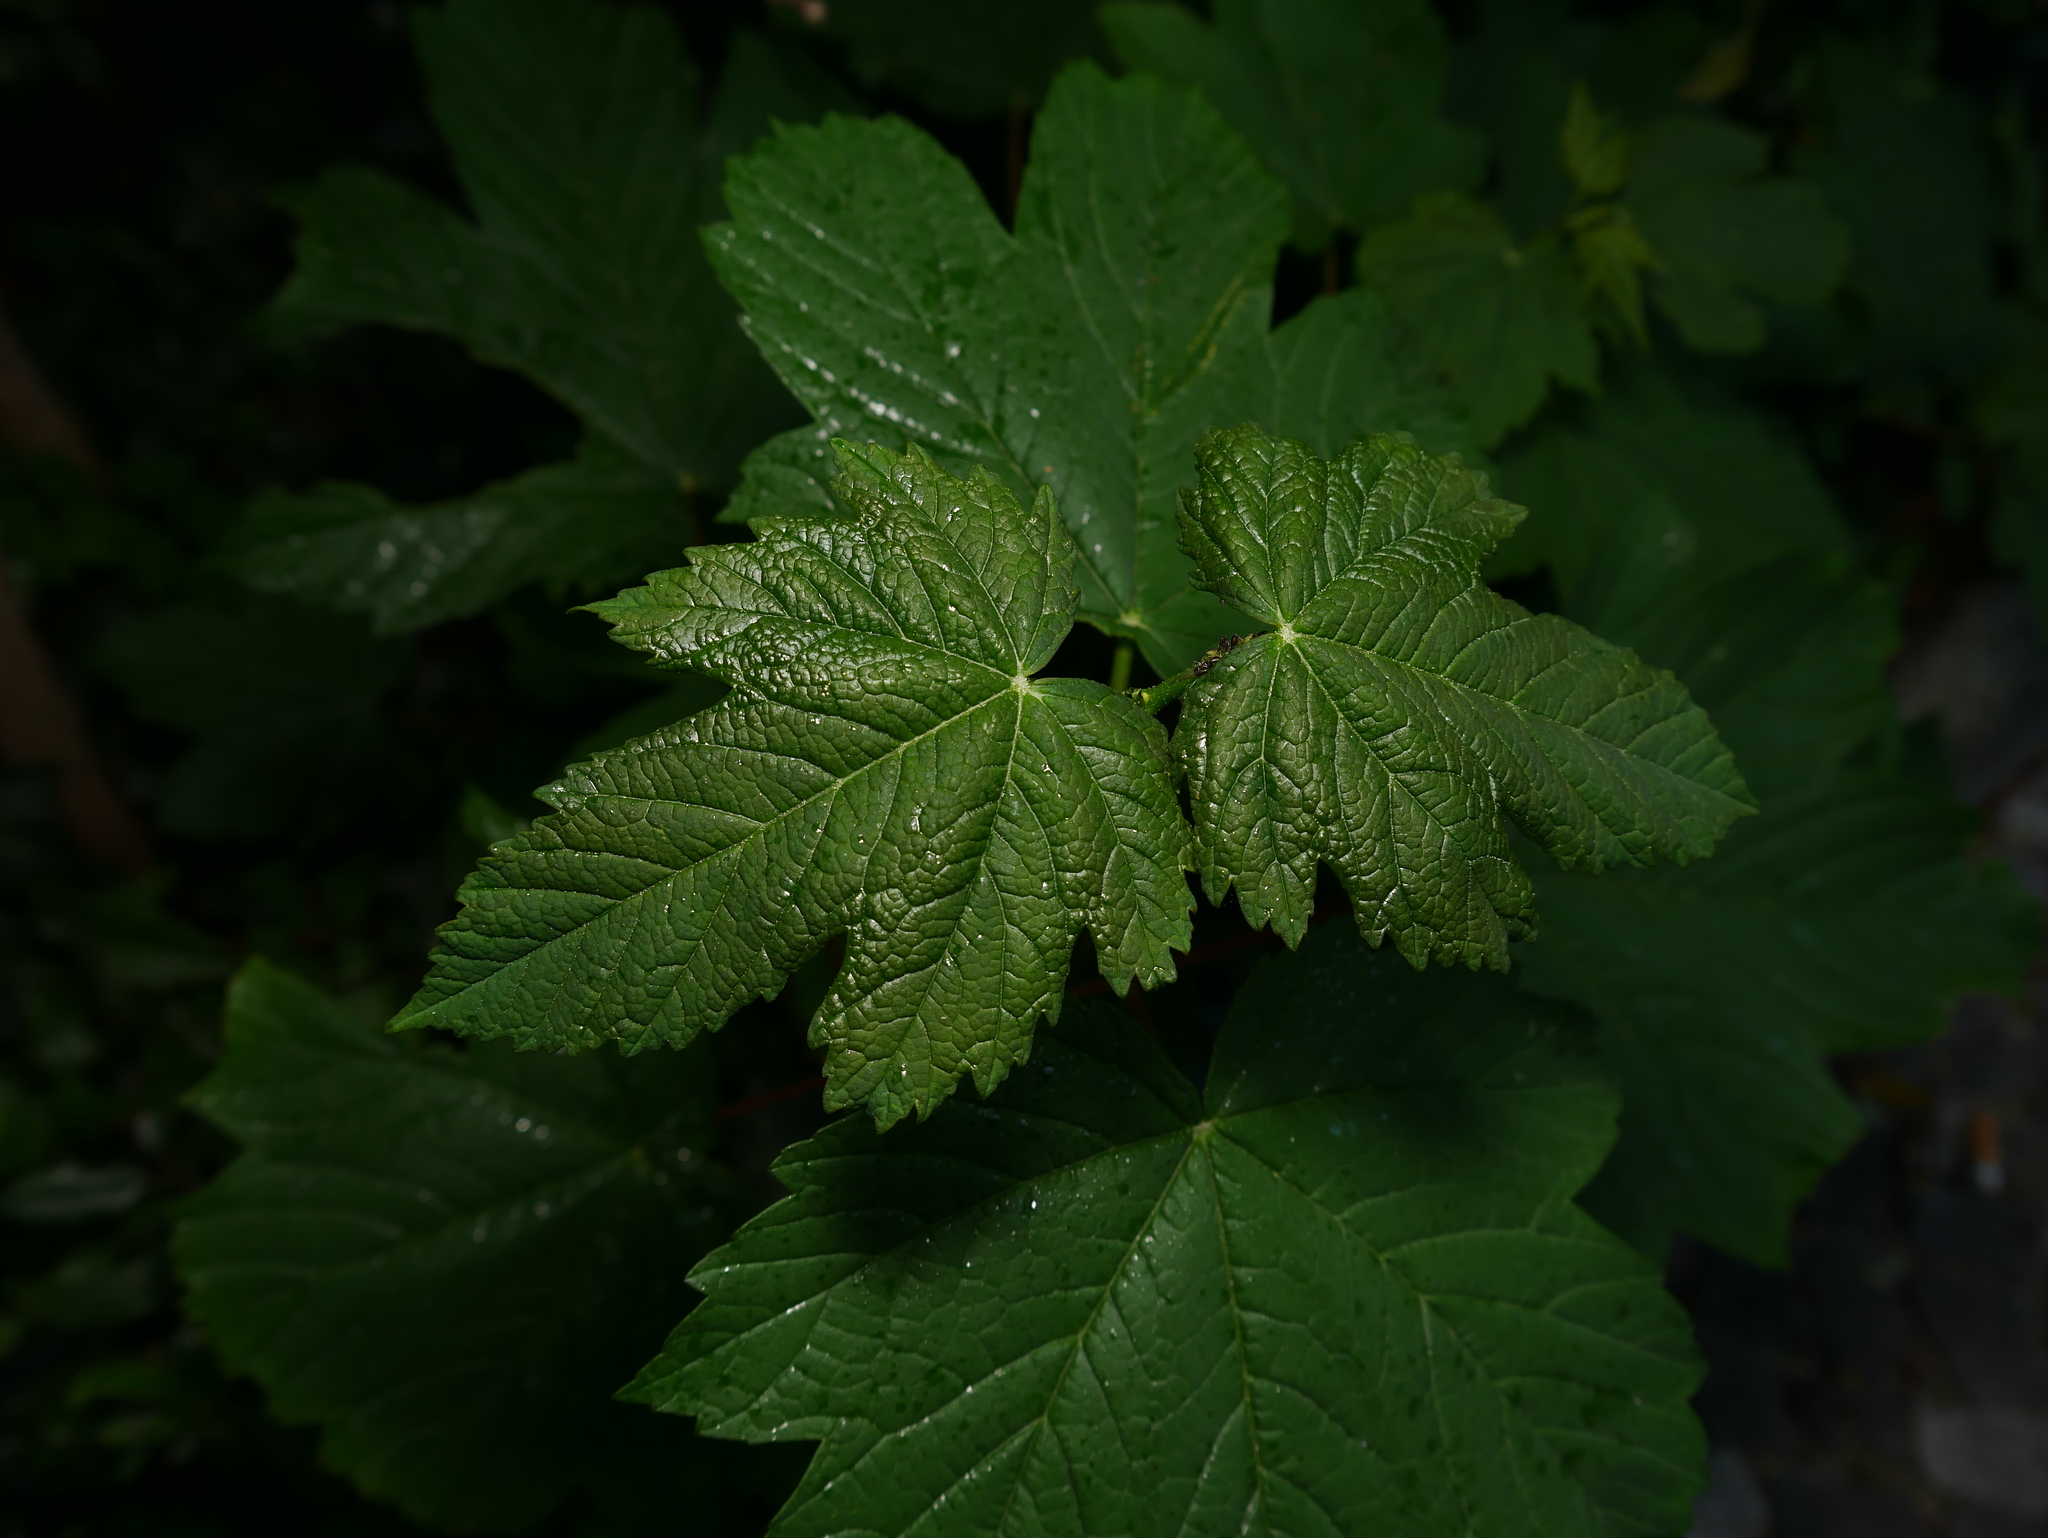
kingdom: Plantae
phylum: Tracheophyta
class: Magnoliopsida
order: Sapindales
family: Sapindaceae
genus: Acer
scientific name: Acer pseudoplatanus
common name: Sycamore
